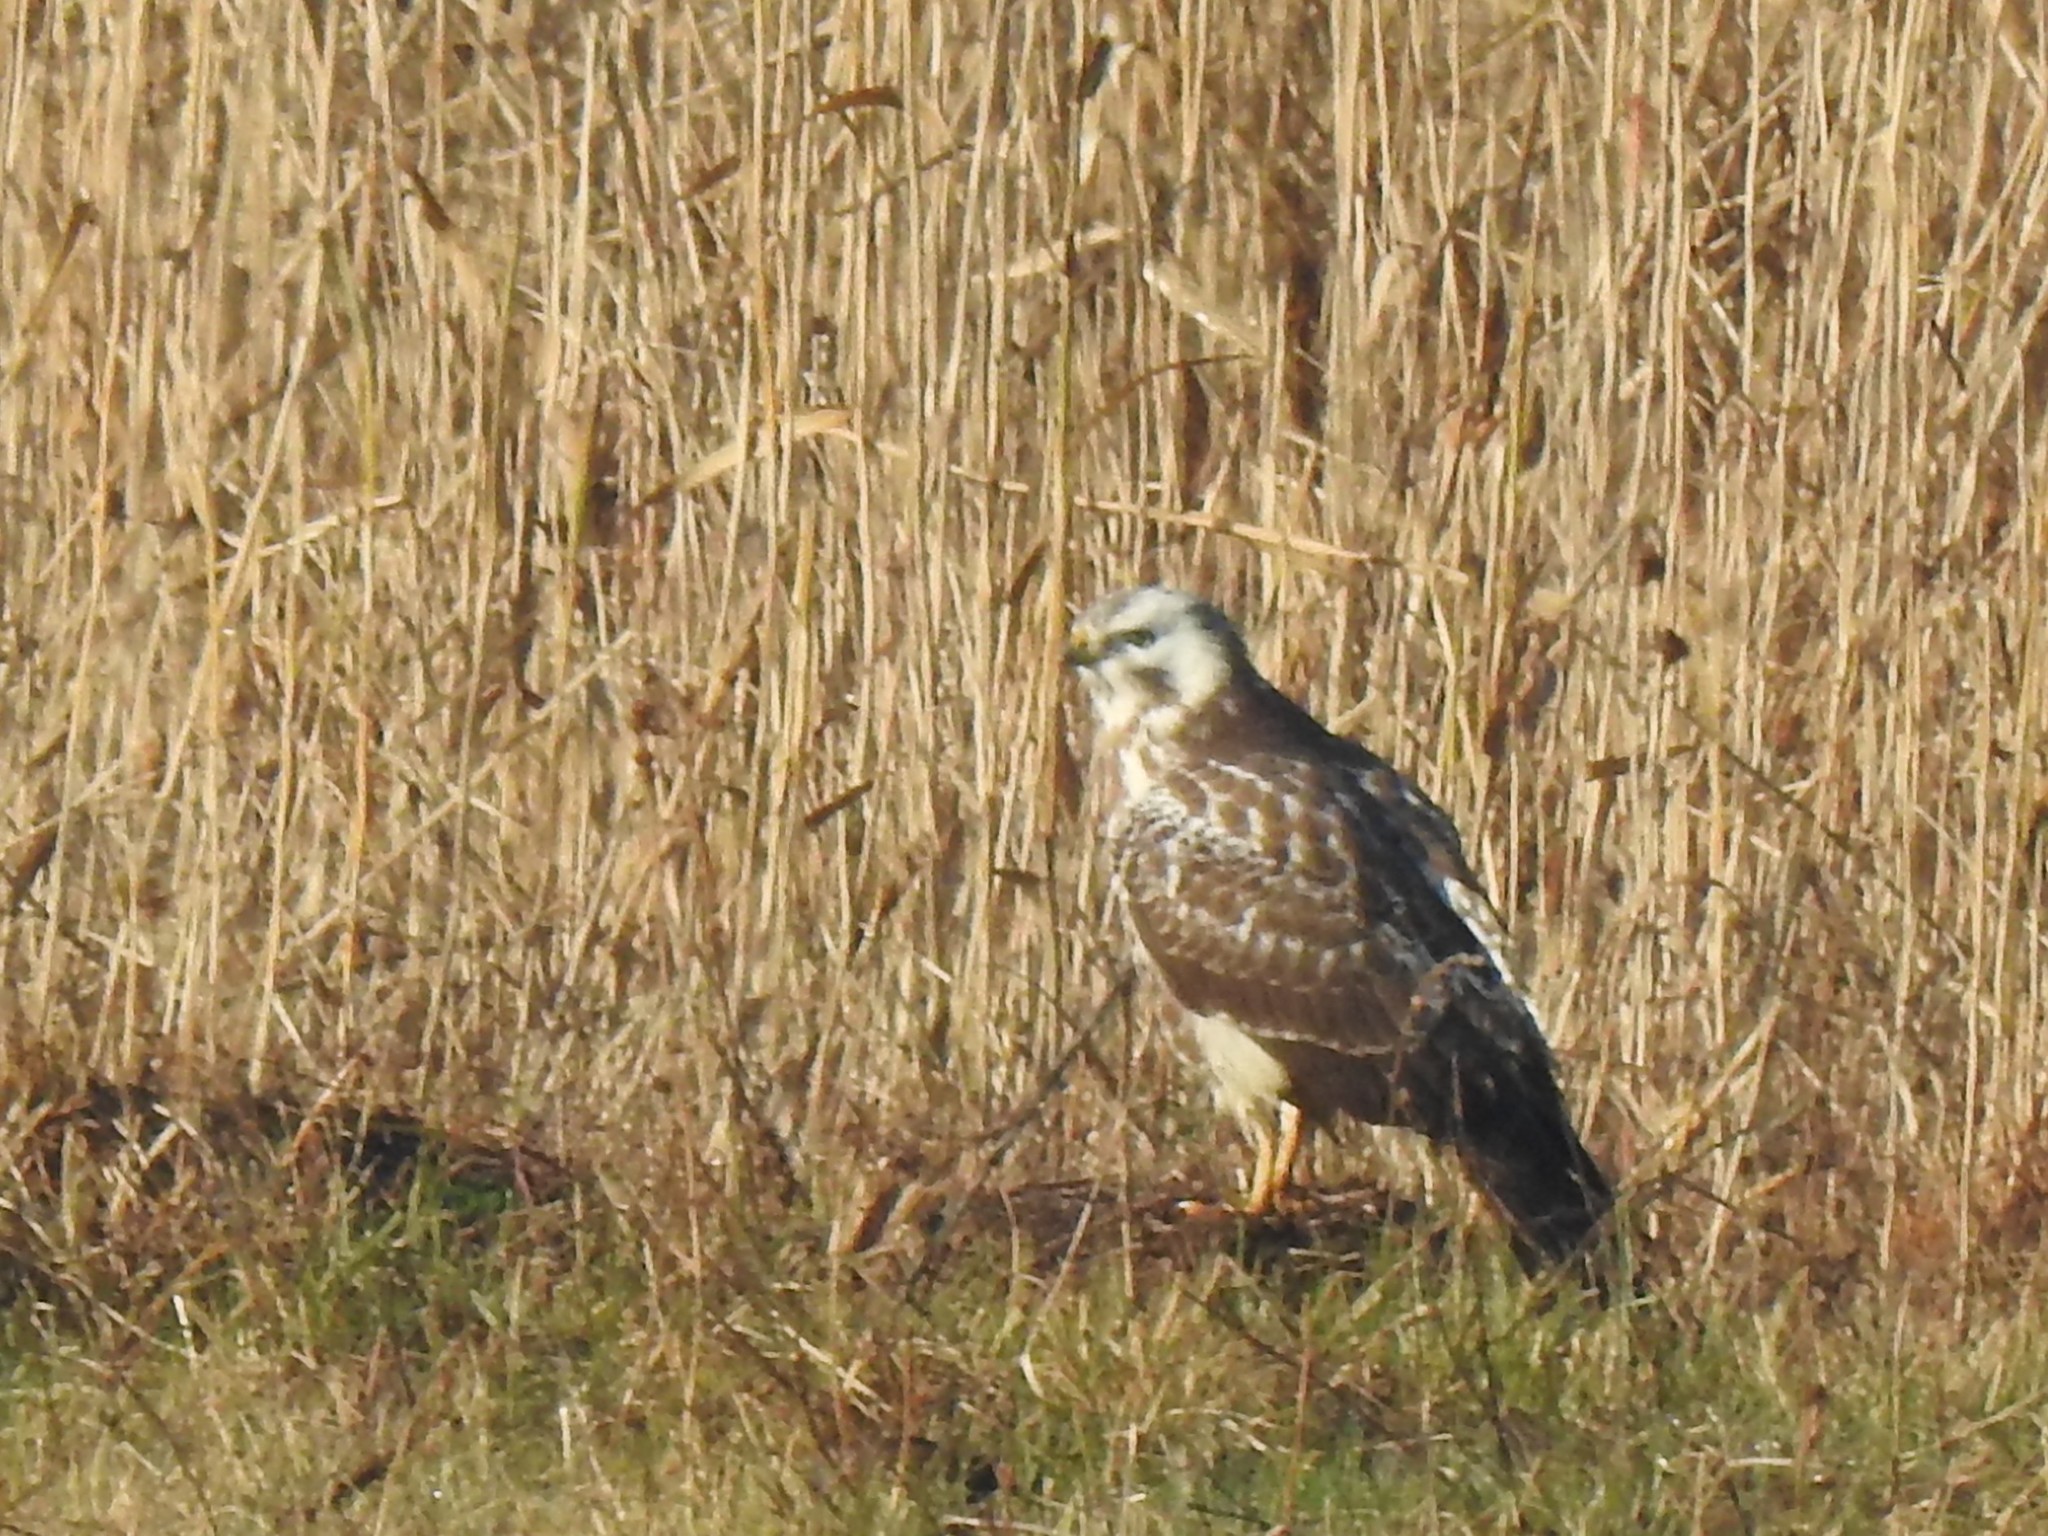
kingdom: Animalia
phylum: Chordata
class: Aves
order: Accipitriformes
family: Accipitridae
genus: Buteo
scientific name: Buteo buteo
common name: Common buzzard
